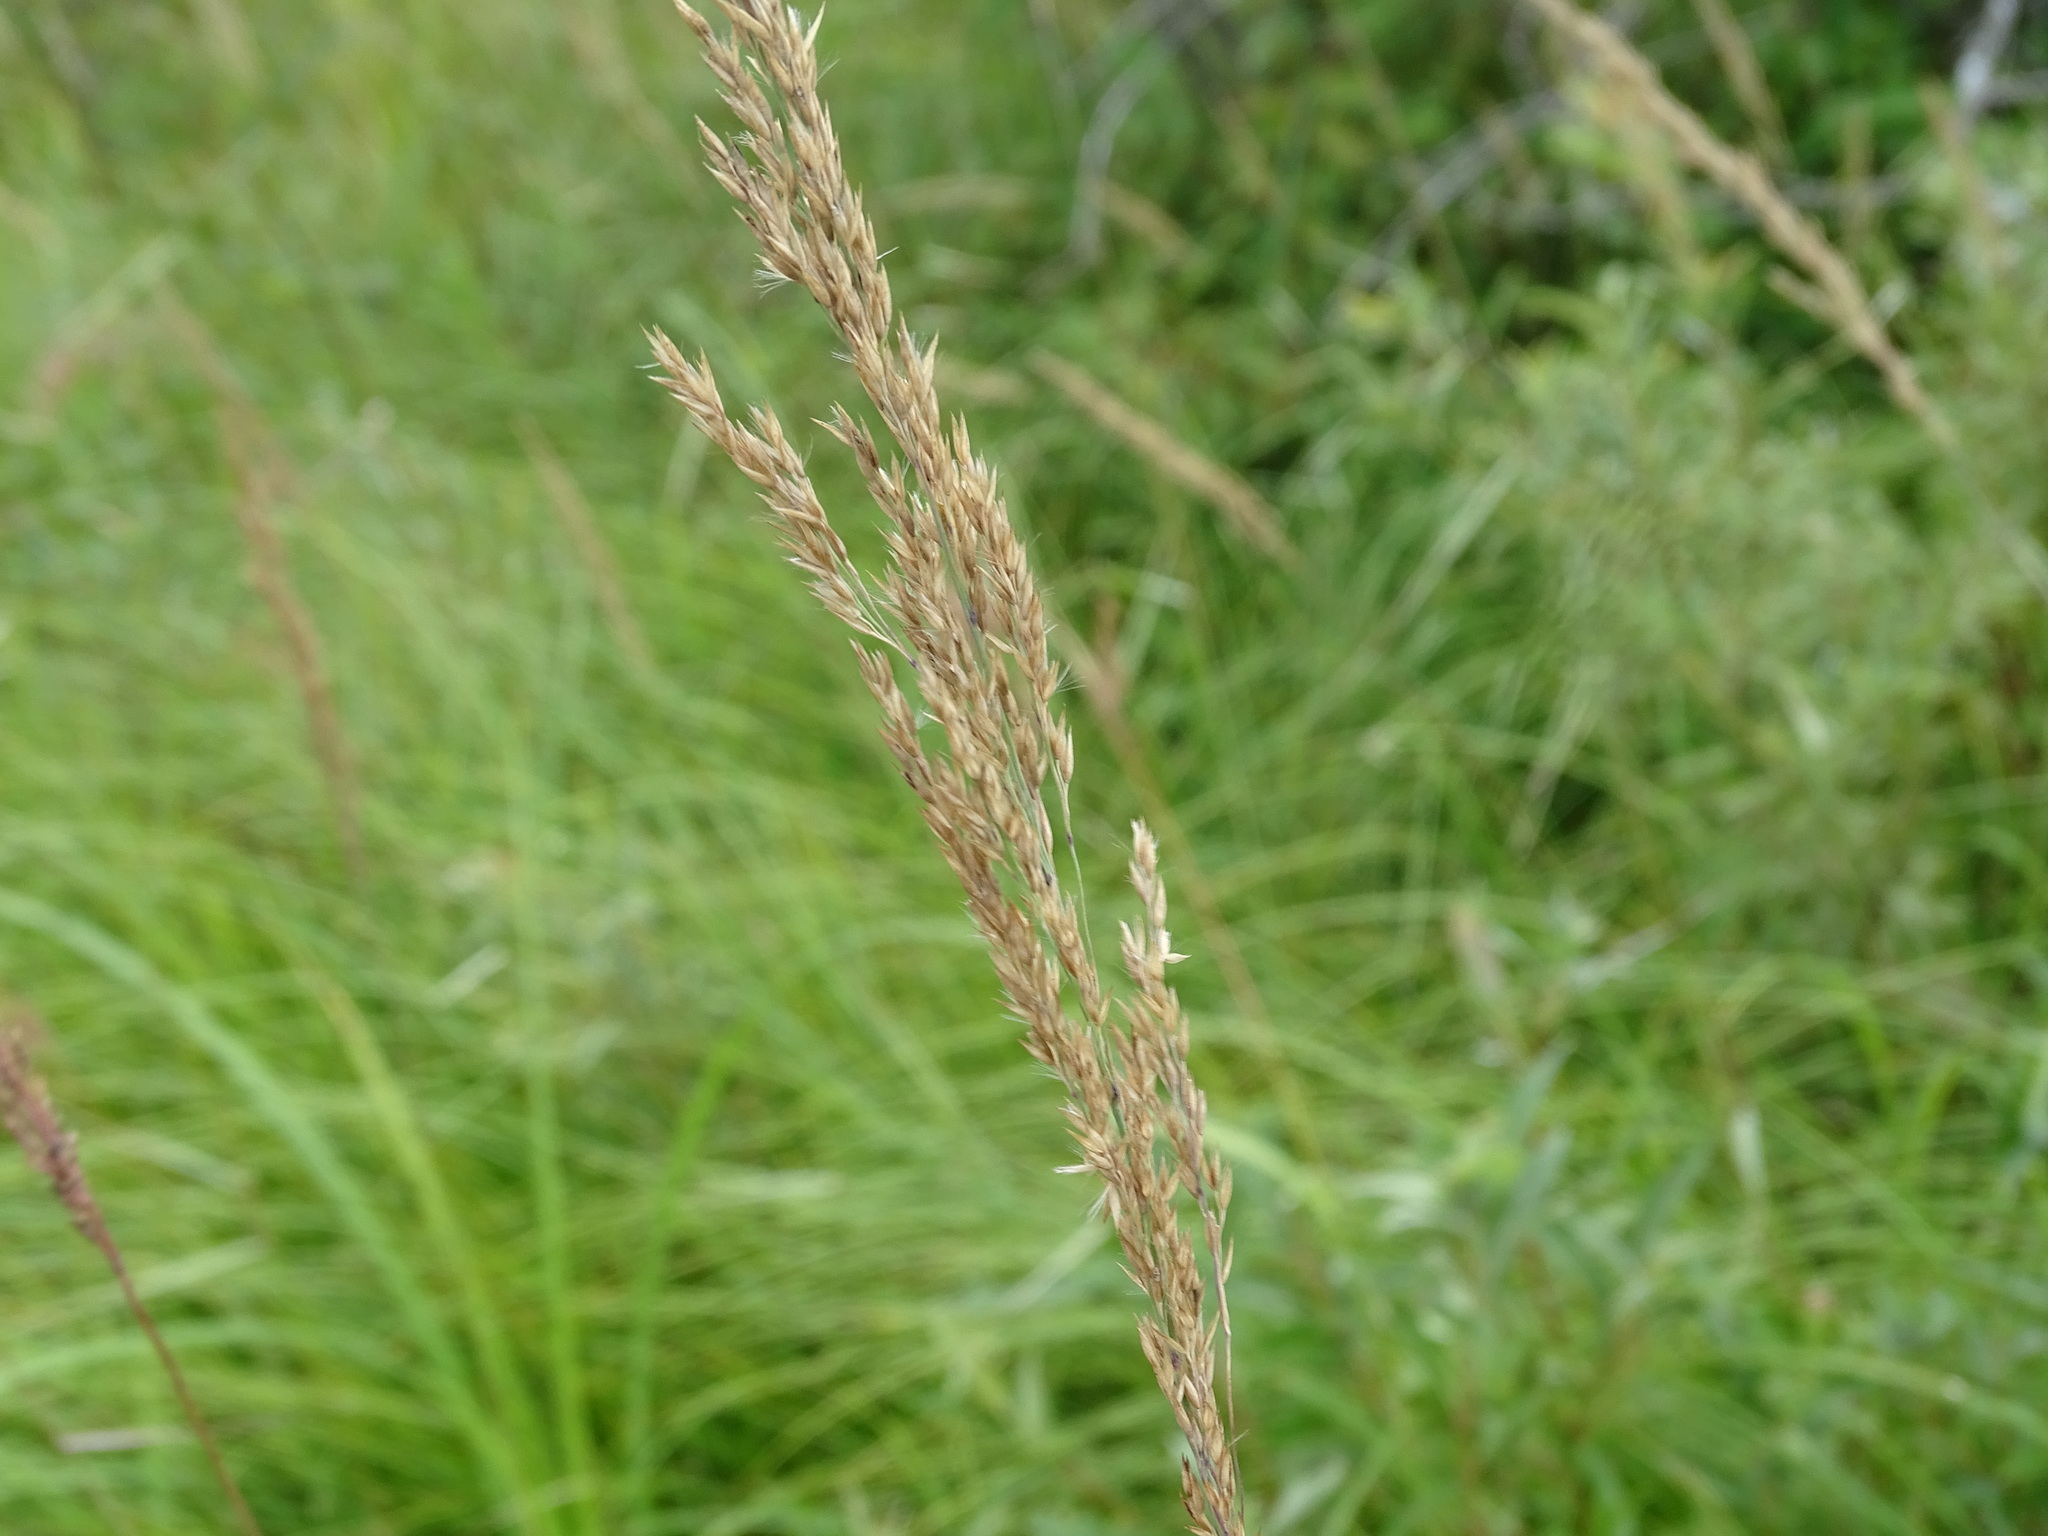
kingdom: Plantae
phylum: Tracheophyta
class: Liliopsida
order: Poales
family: Poaceae
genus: Calamagrostis
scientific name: Calamagrostis canadensis
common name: Canada bluejoint
